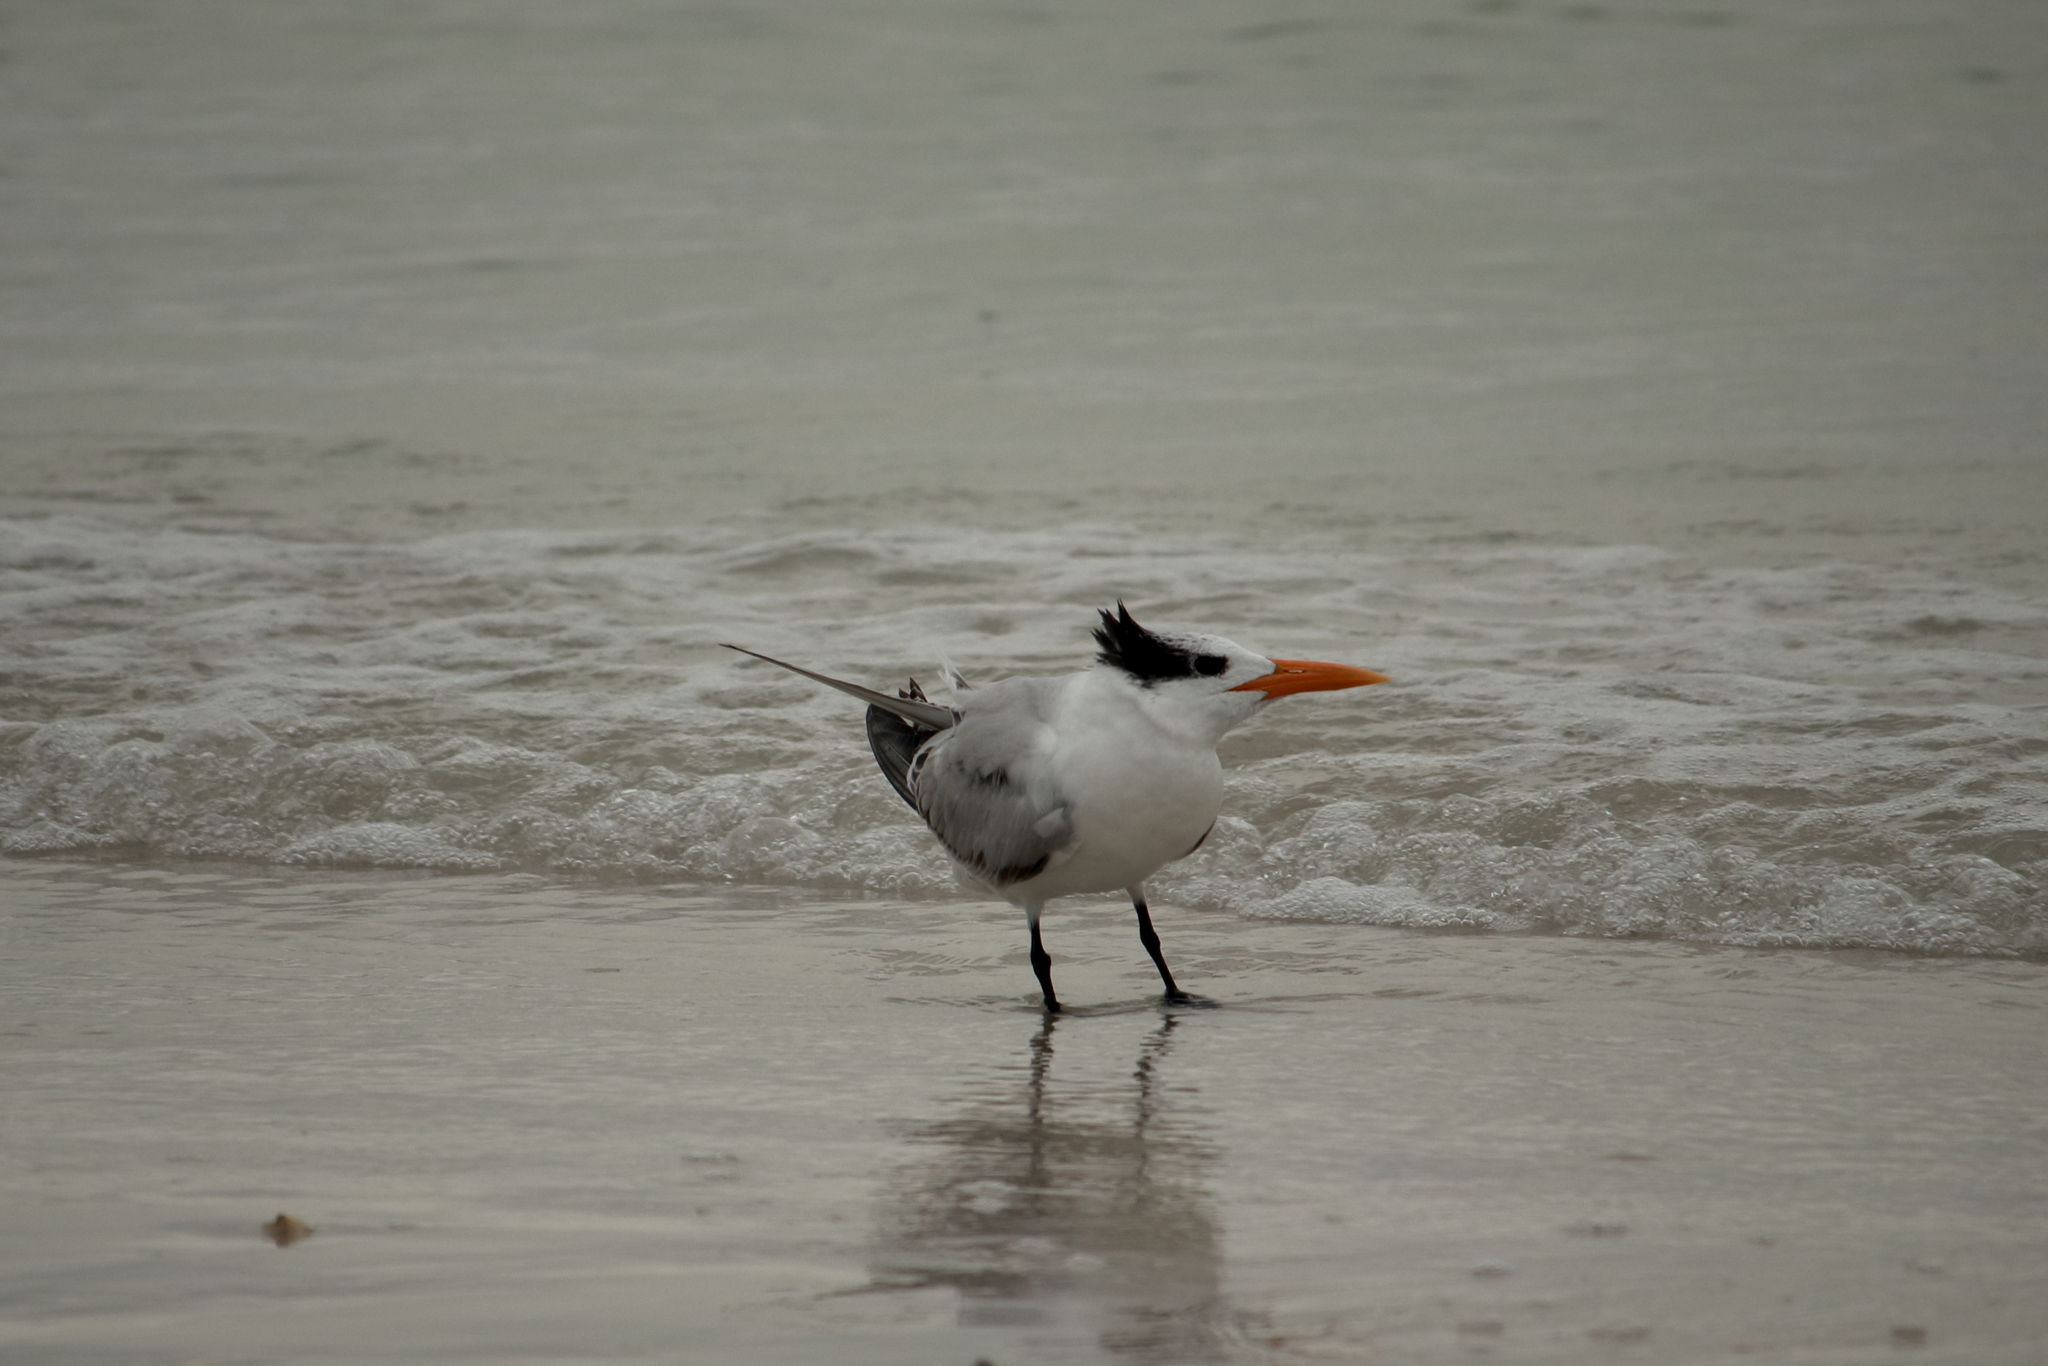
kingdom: Animalia
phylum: Chordata
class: Aves
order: Charadriiformes
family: Laridae
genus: Thalasseus
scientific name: Thalasseus maximus
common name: Royal tern
